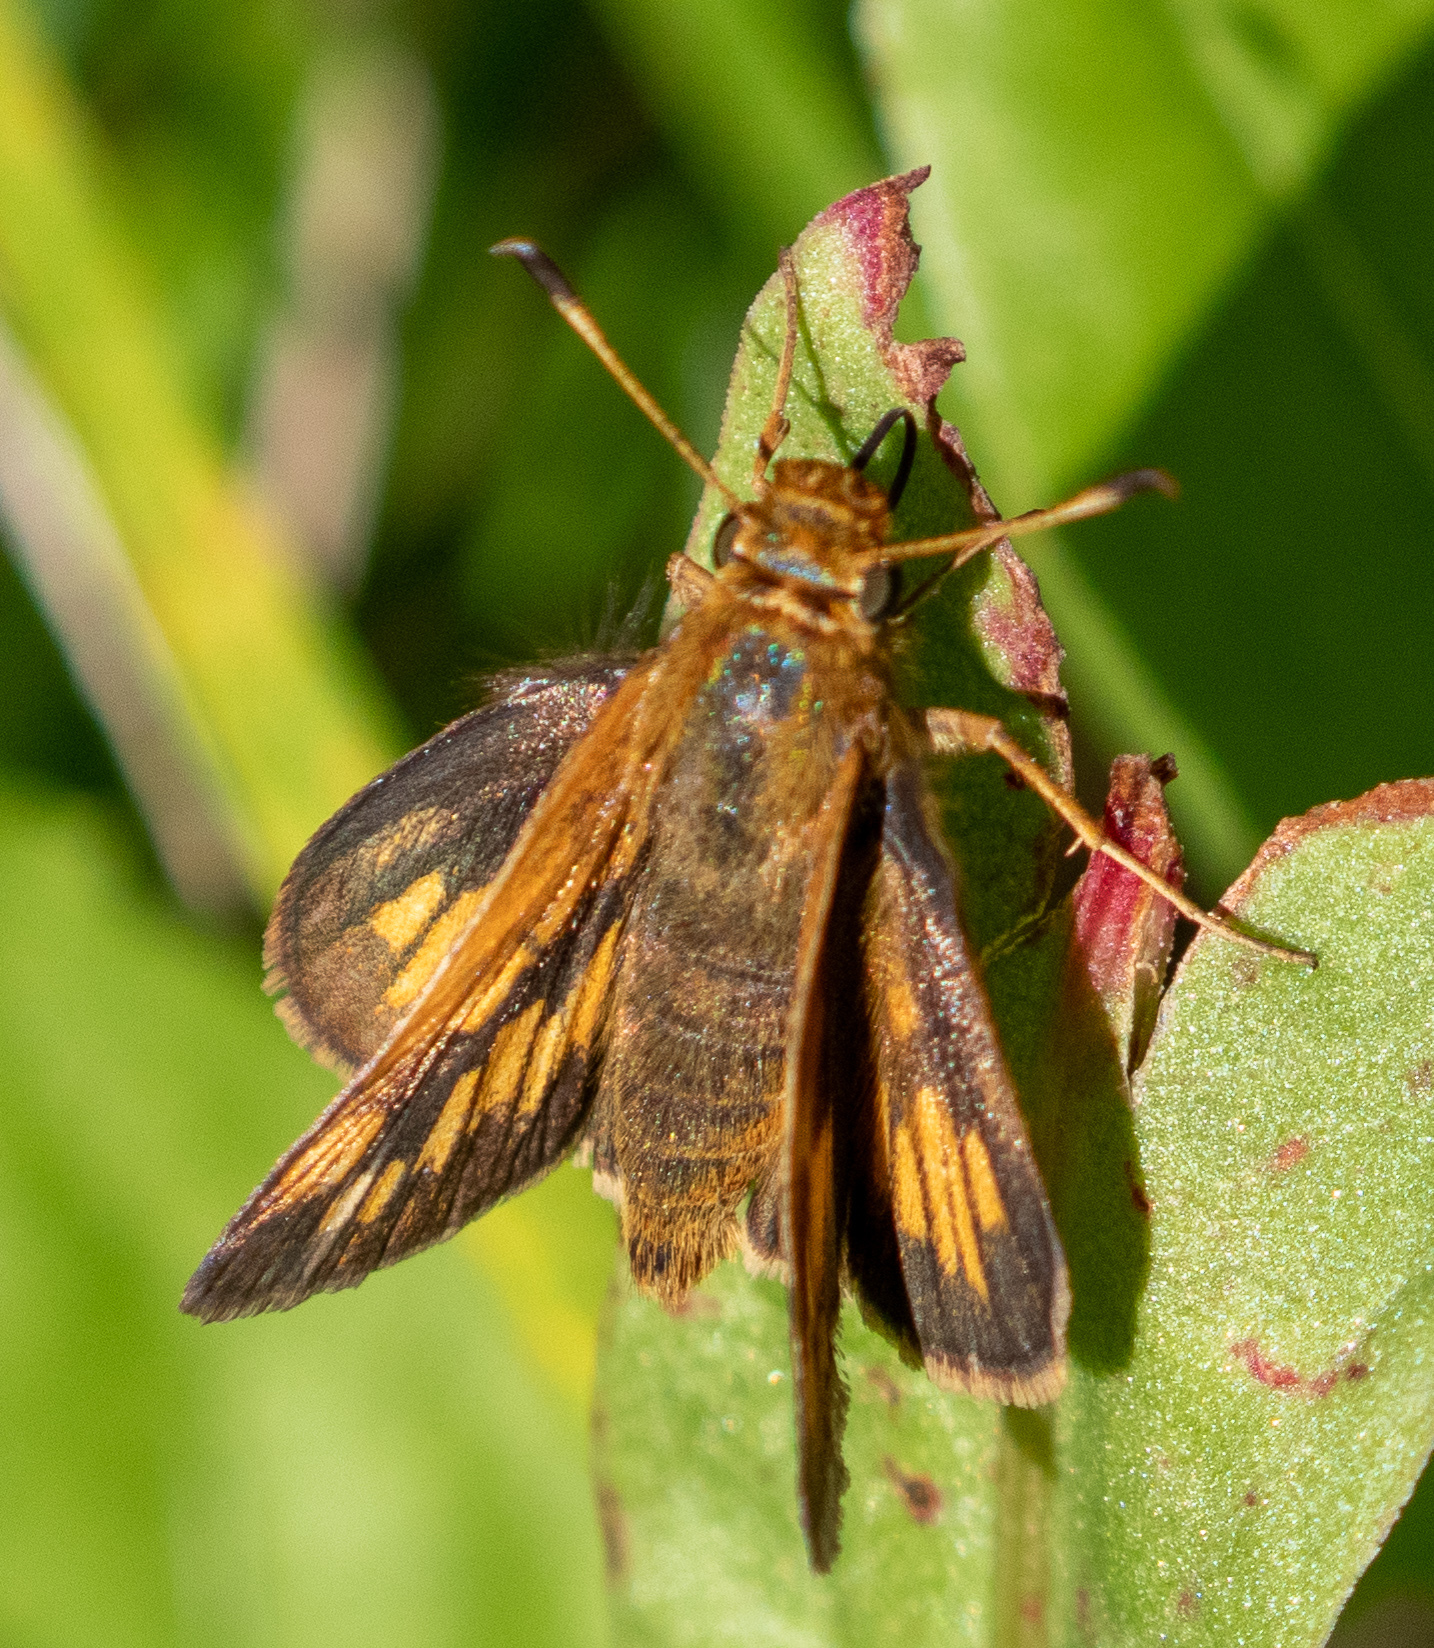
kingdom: Animalia
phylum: Arthropoda
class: Insecta
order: Lepidoptera
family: Hesperiidae
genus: Polites
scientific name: Polites coras
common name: Peck's skipper
